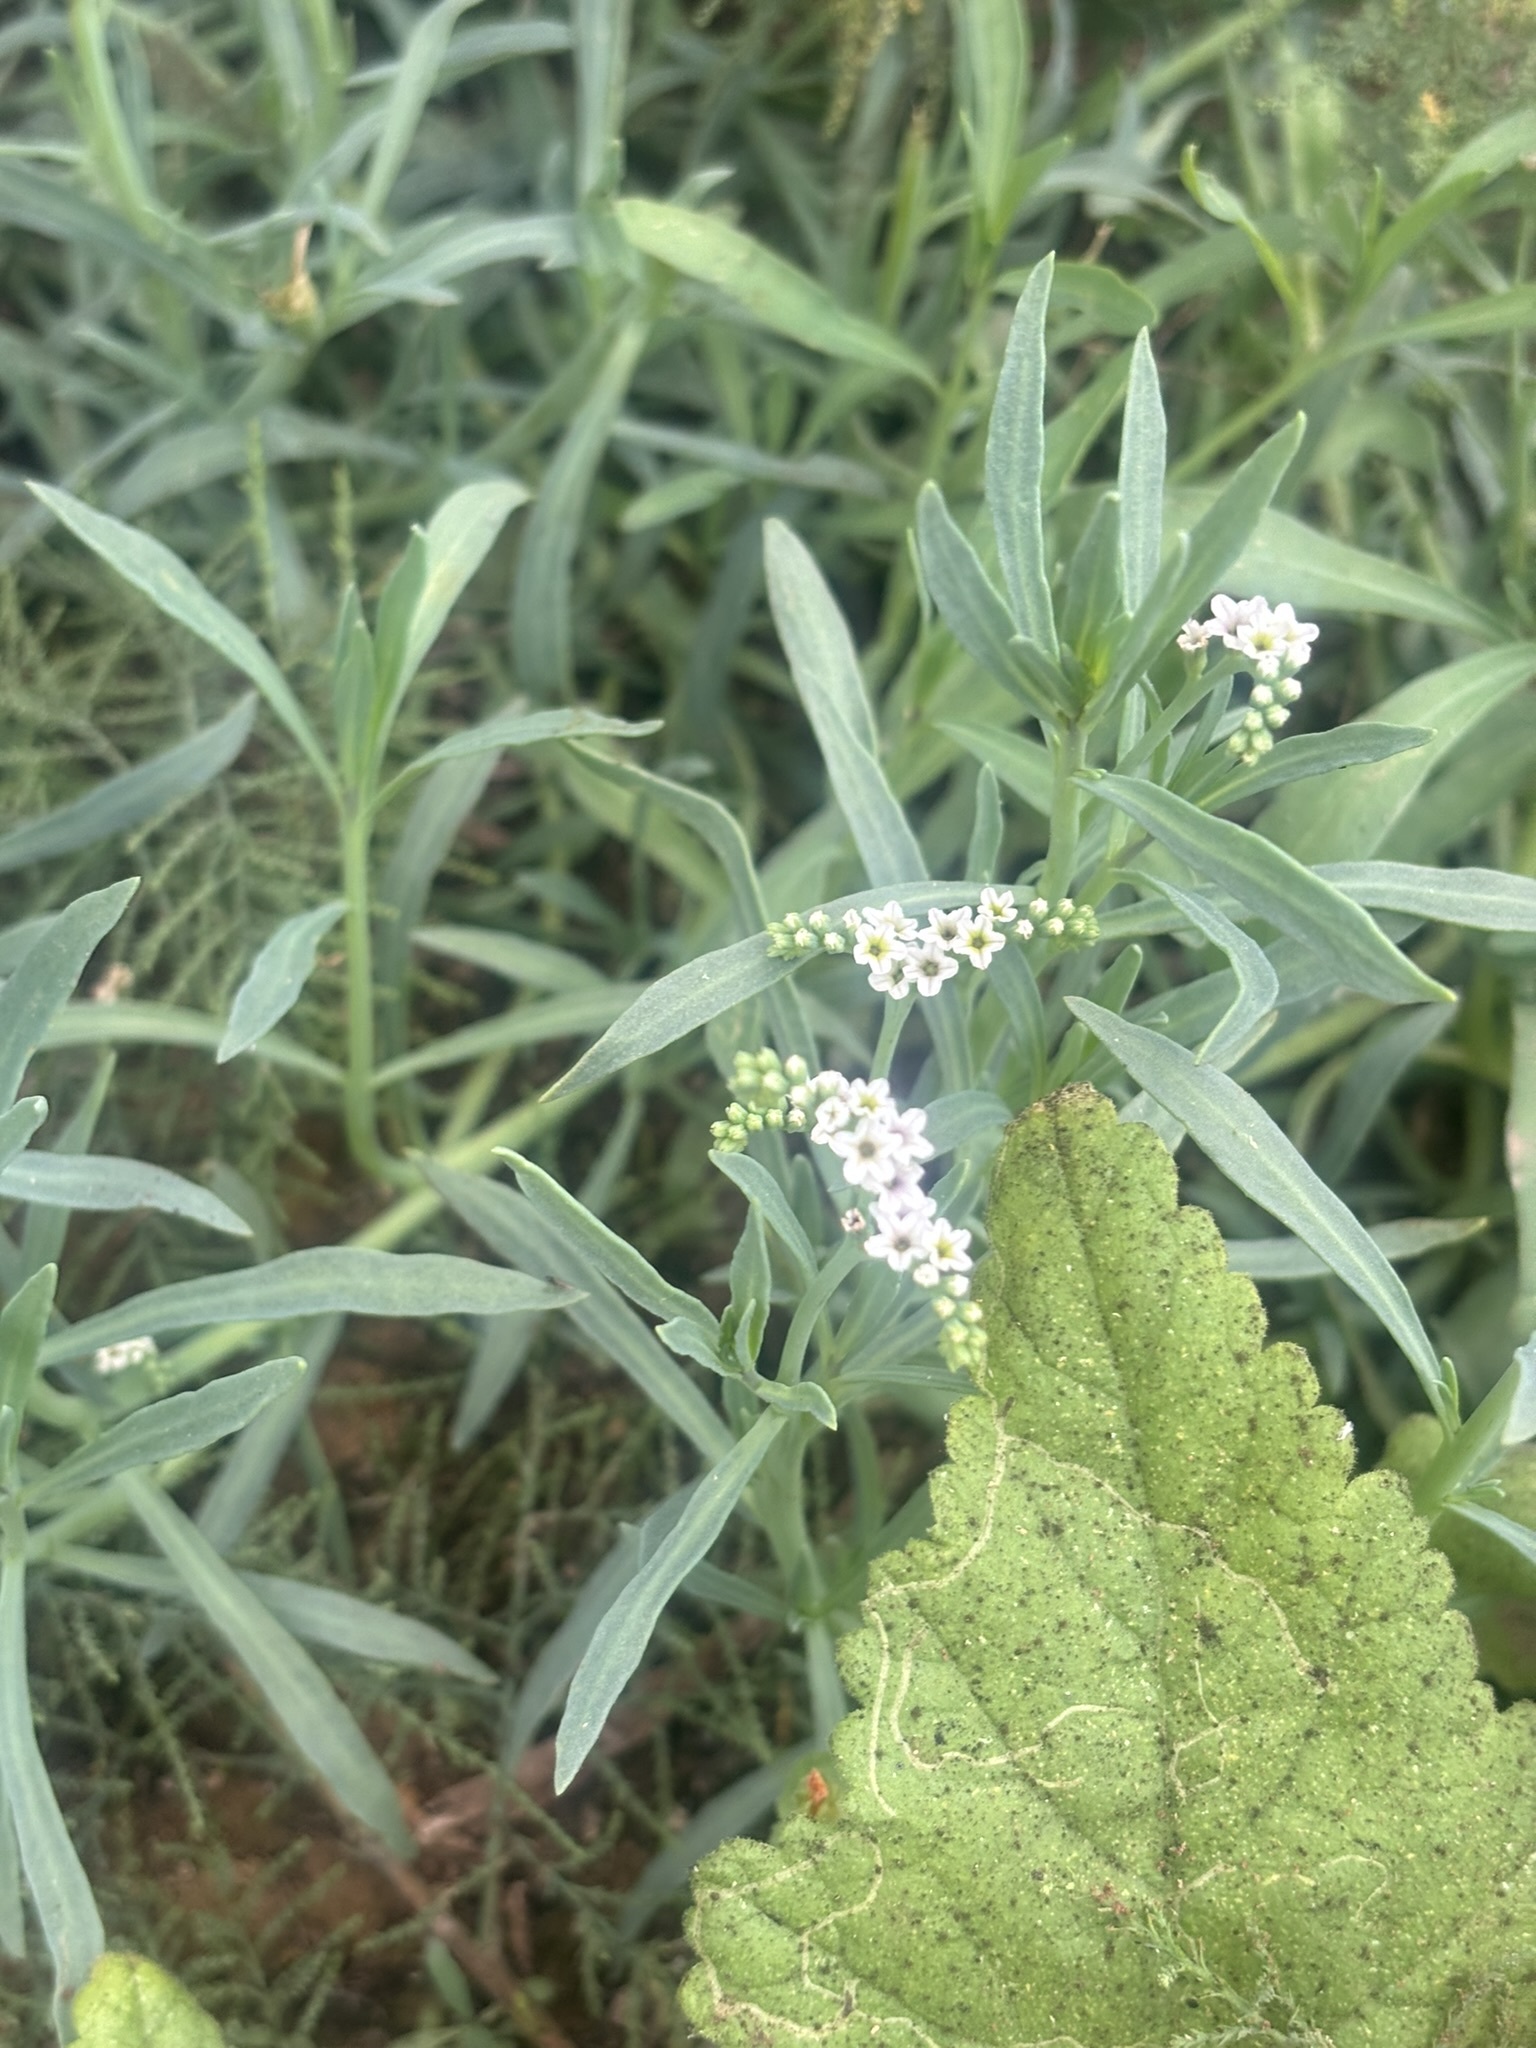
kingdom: Plantae
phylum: Tracheophyta
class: Magnoliopsida
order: Boraginales
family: Heliotropiaceae
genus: Heliotropium
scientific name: Heliotropium curassavicum
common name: Seaside heliotrope
